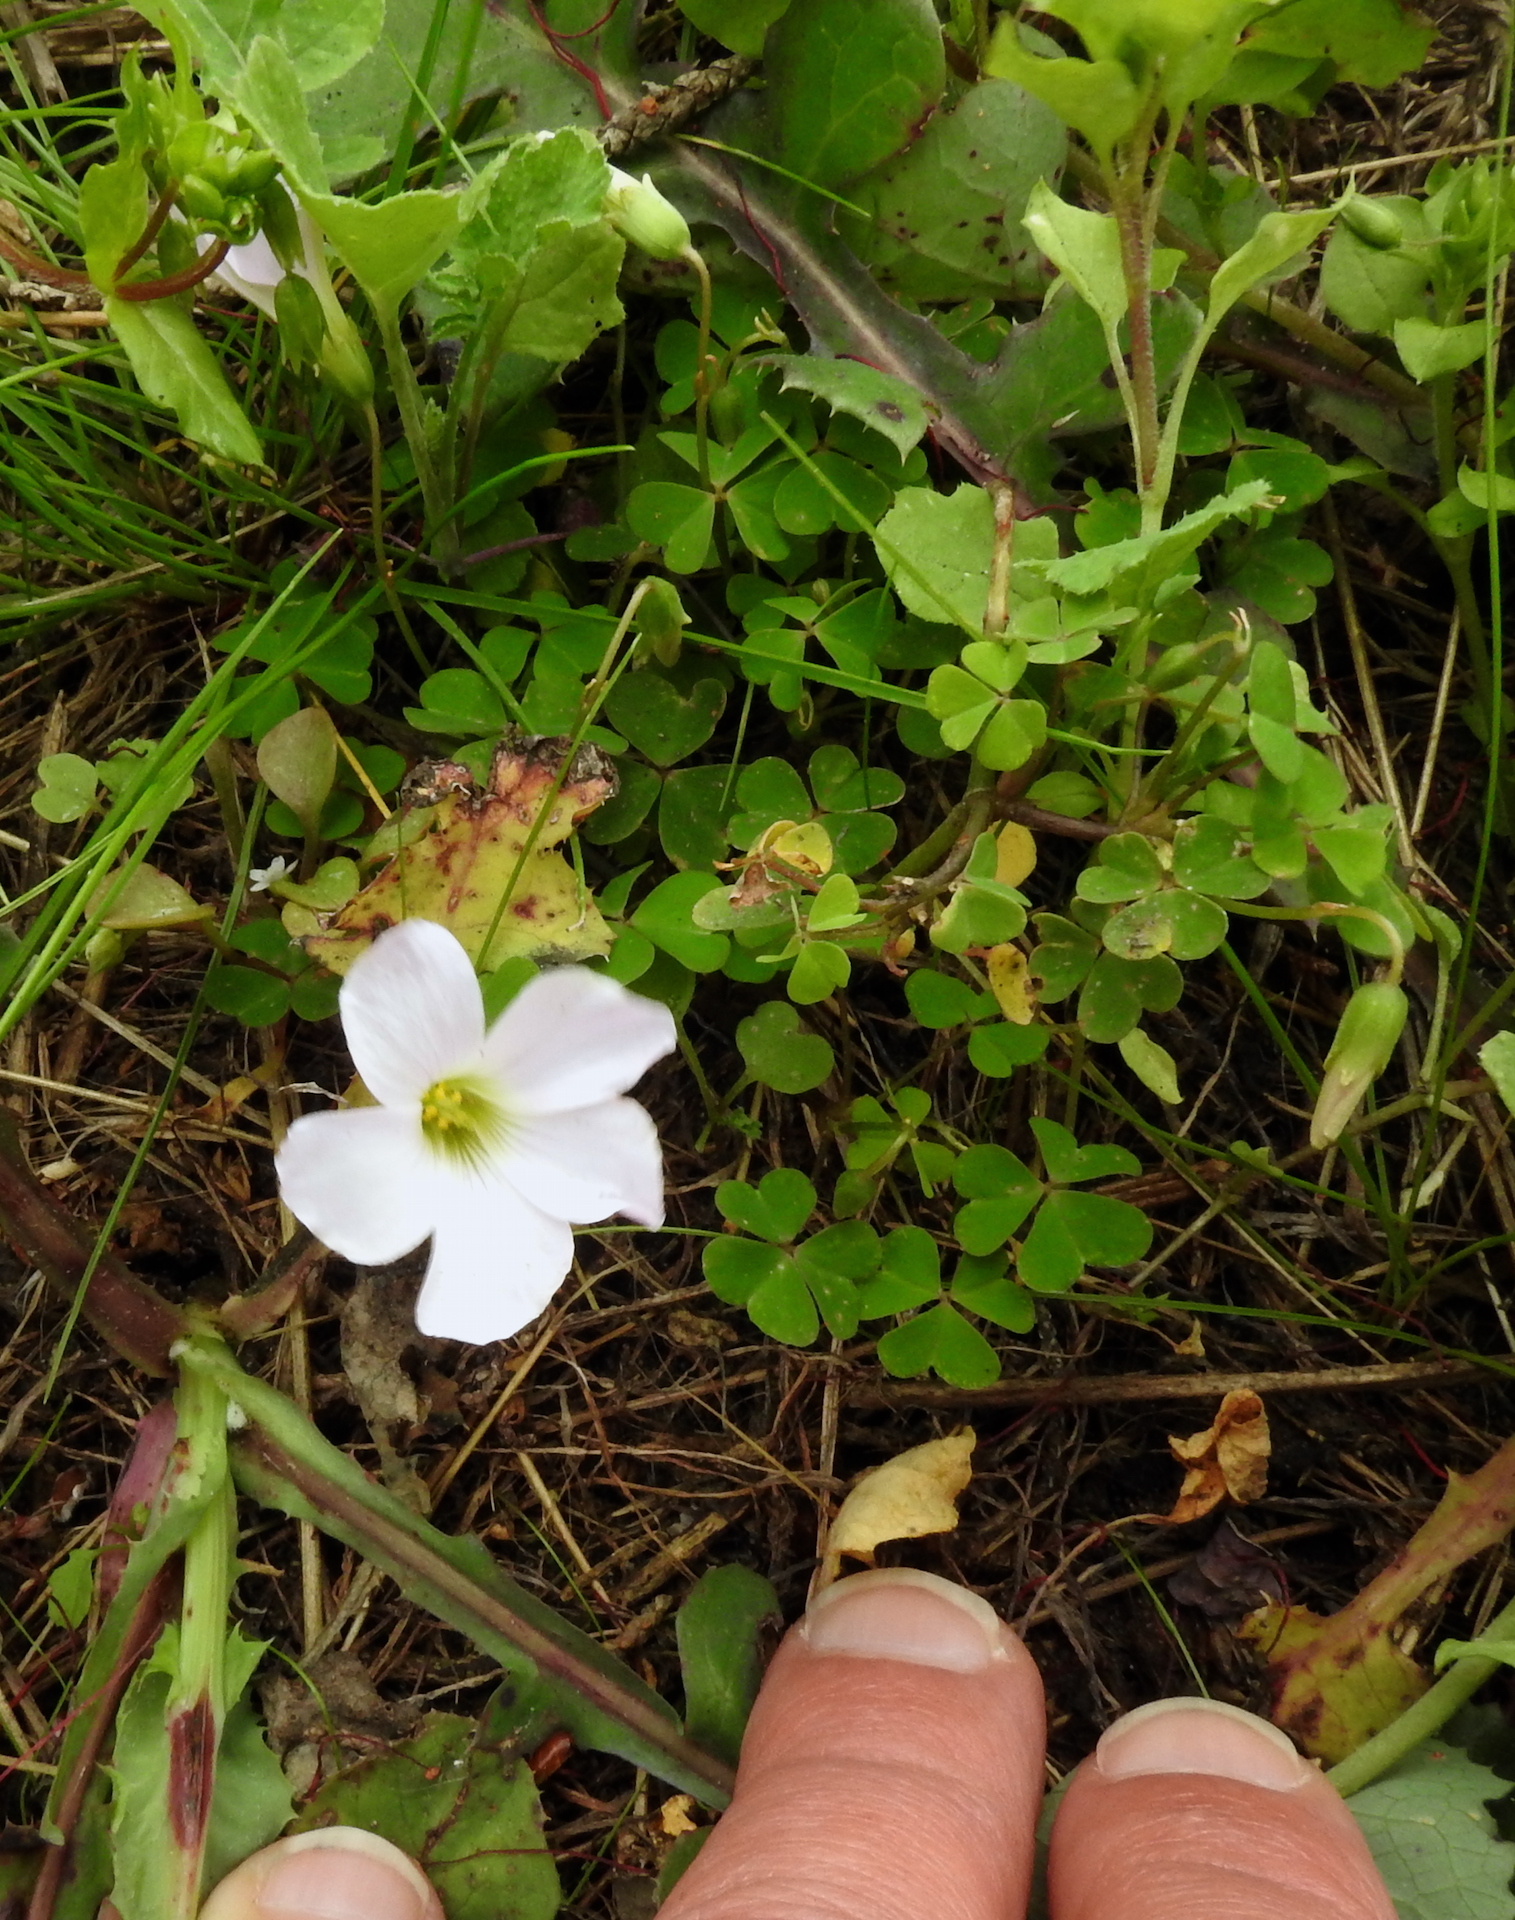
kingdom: Plantae
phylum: Tracheophyta
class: Magnoliopsida
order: Oxalidales
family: Oxalidaceae
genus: Oxalis
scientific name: Oxalis incarnata
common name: Pale pink-sorrel
